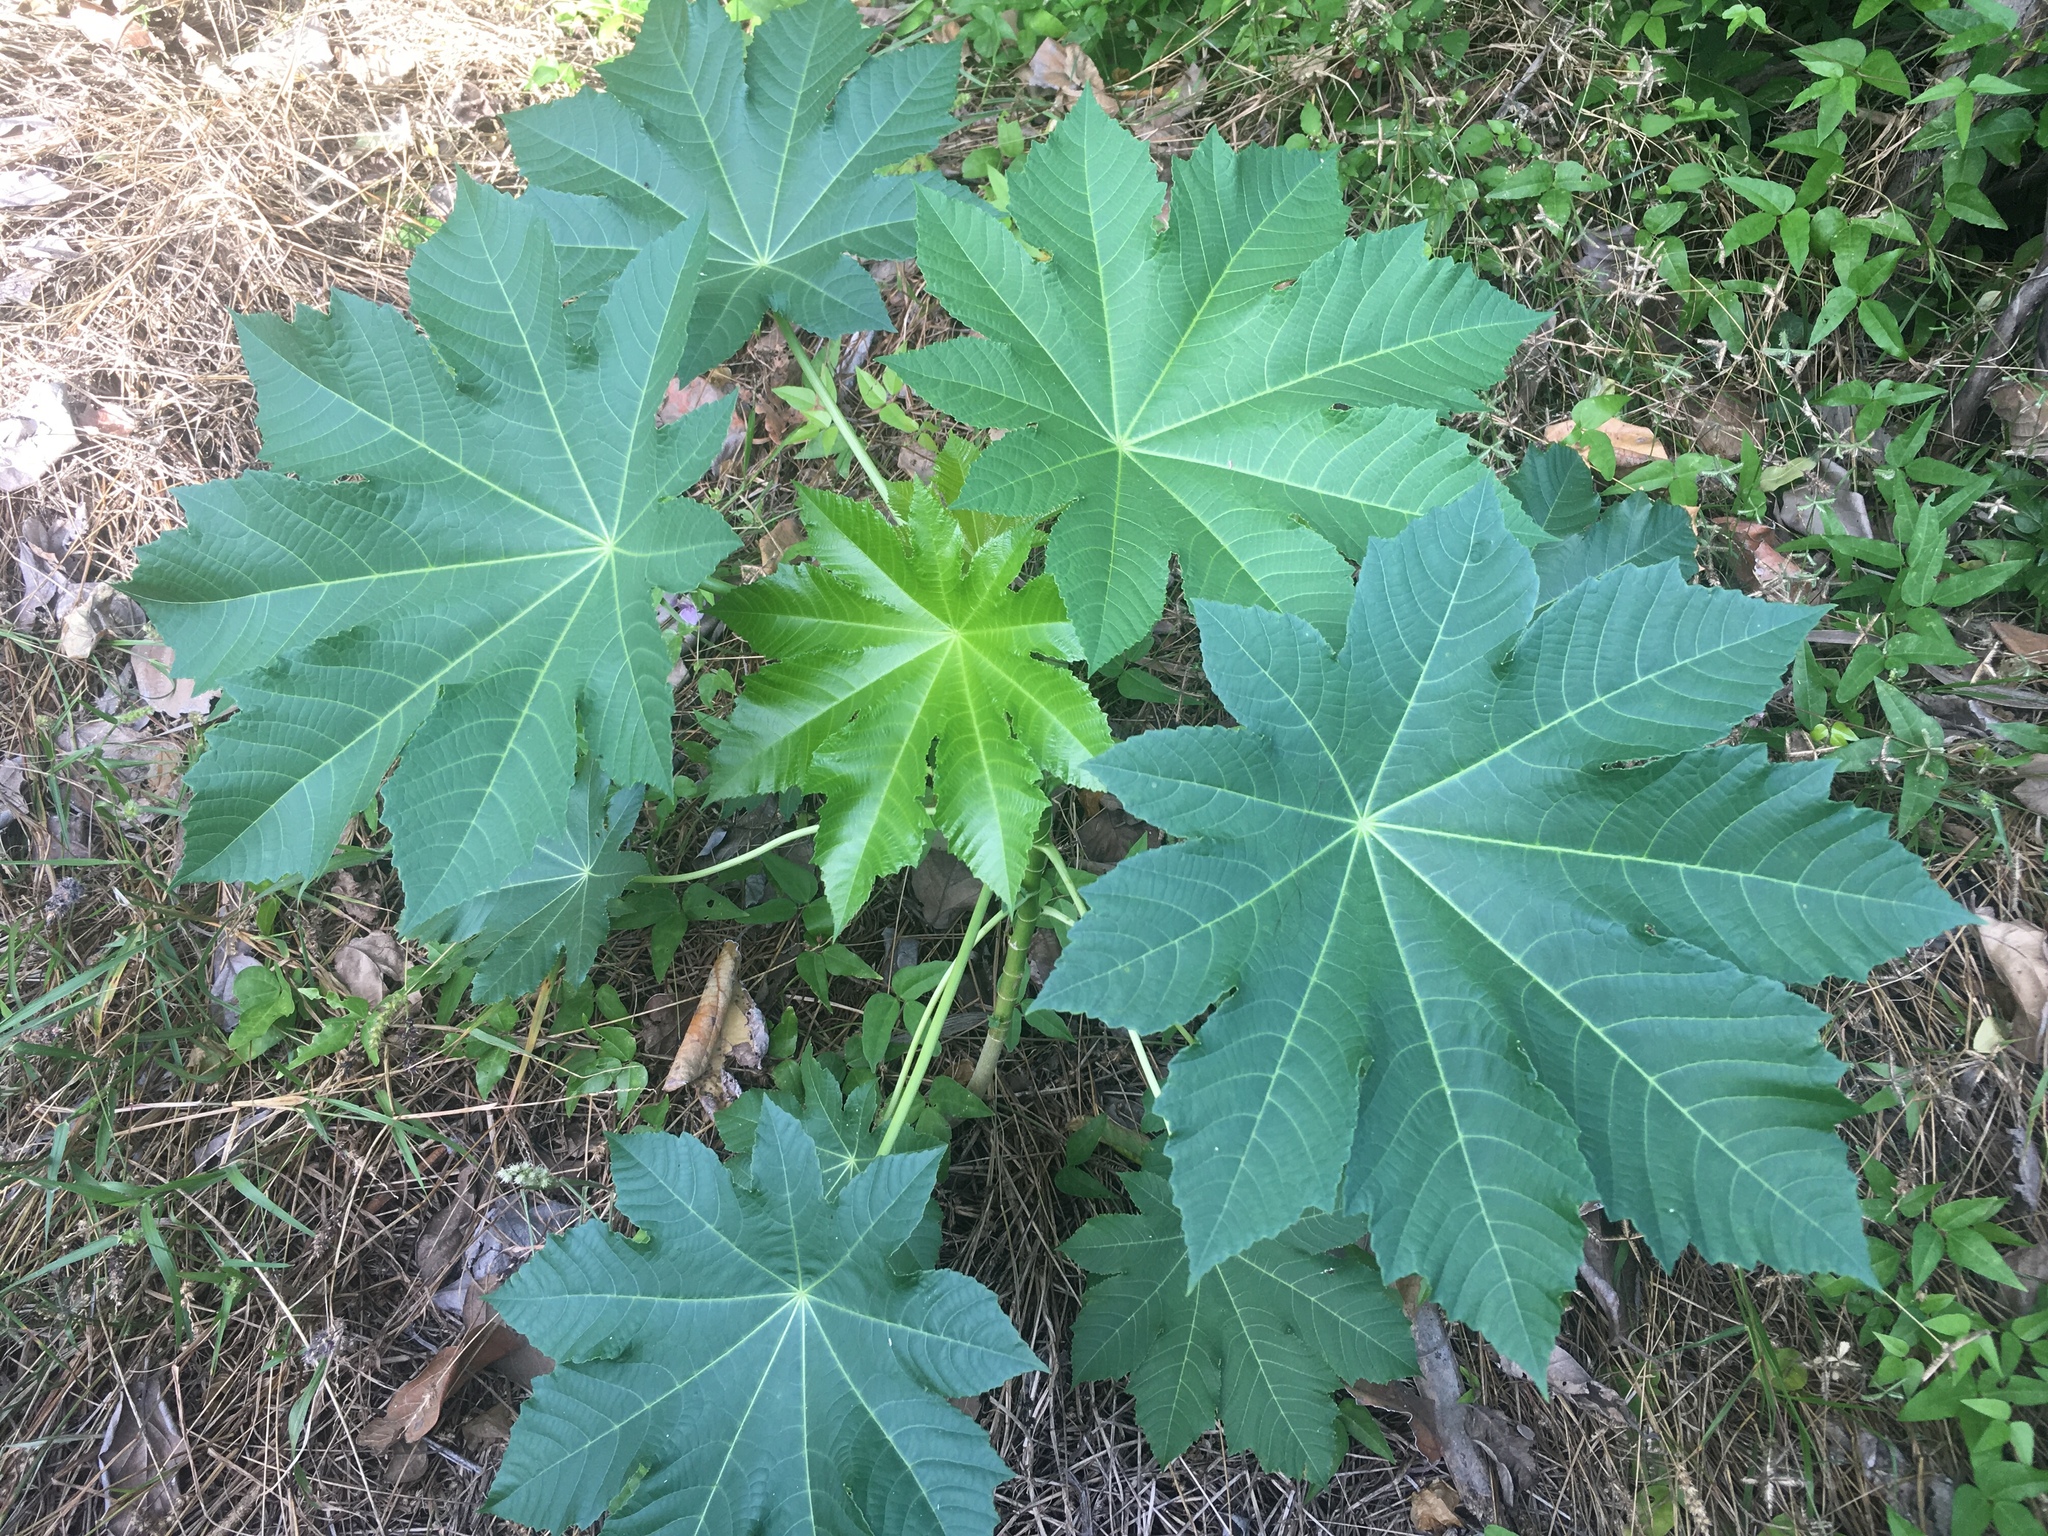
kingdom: Plantae
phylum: Tracheophyta
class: Magnoliopsida
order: Malpighiales
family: Euphorbiaceae
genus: Ricinus
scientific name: Ricinus communis
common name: Castor-oil-plant
